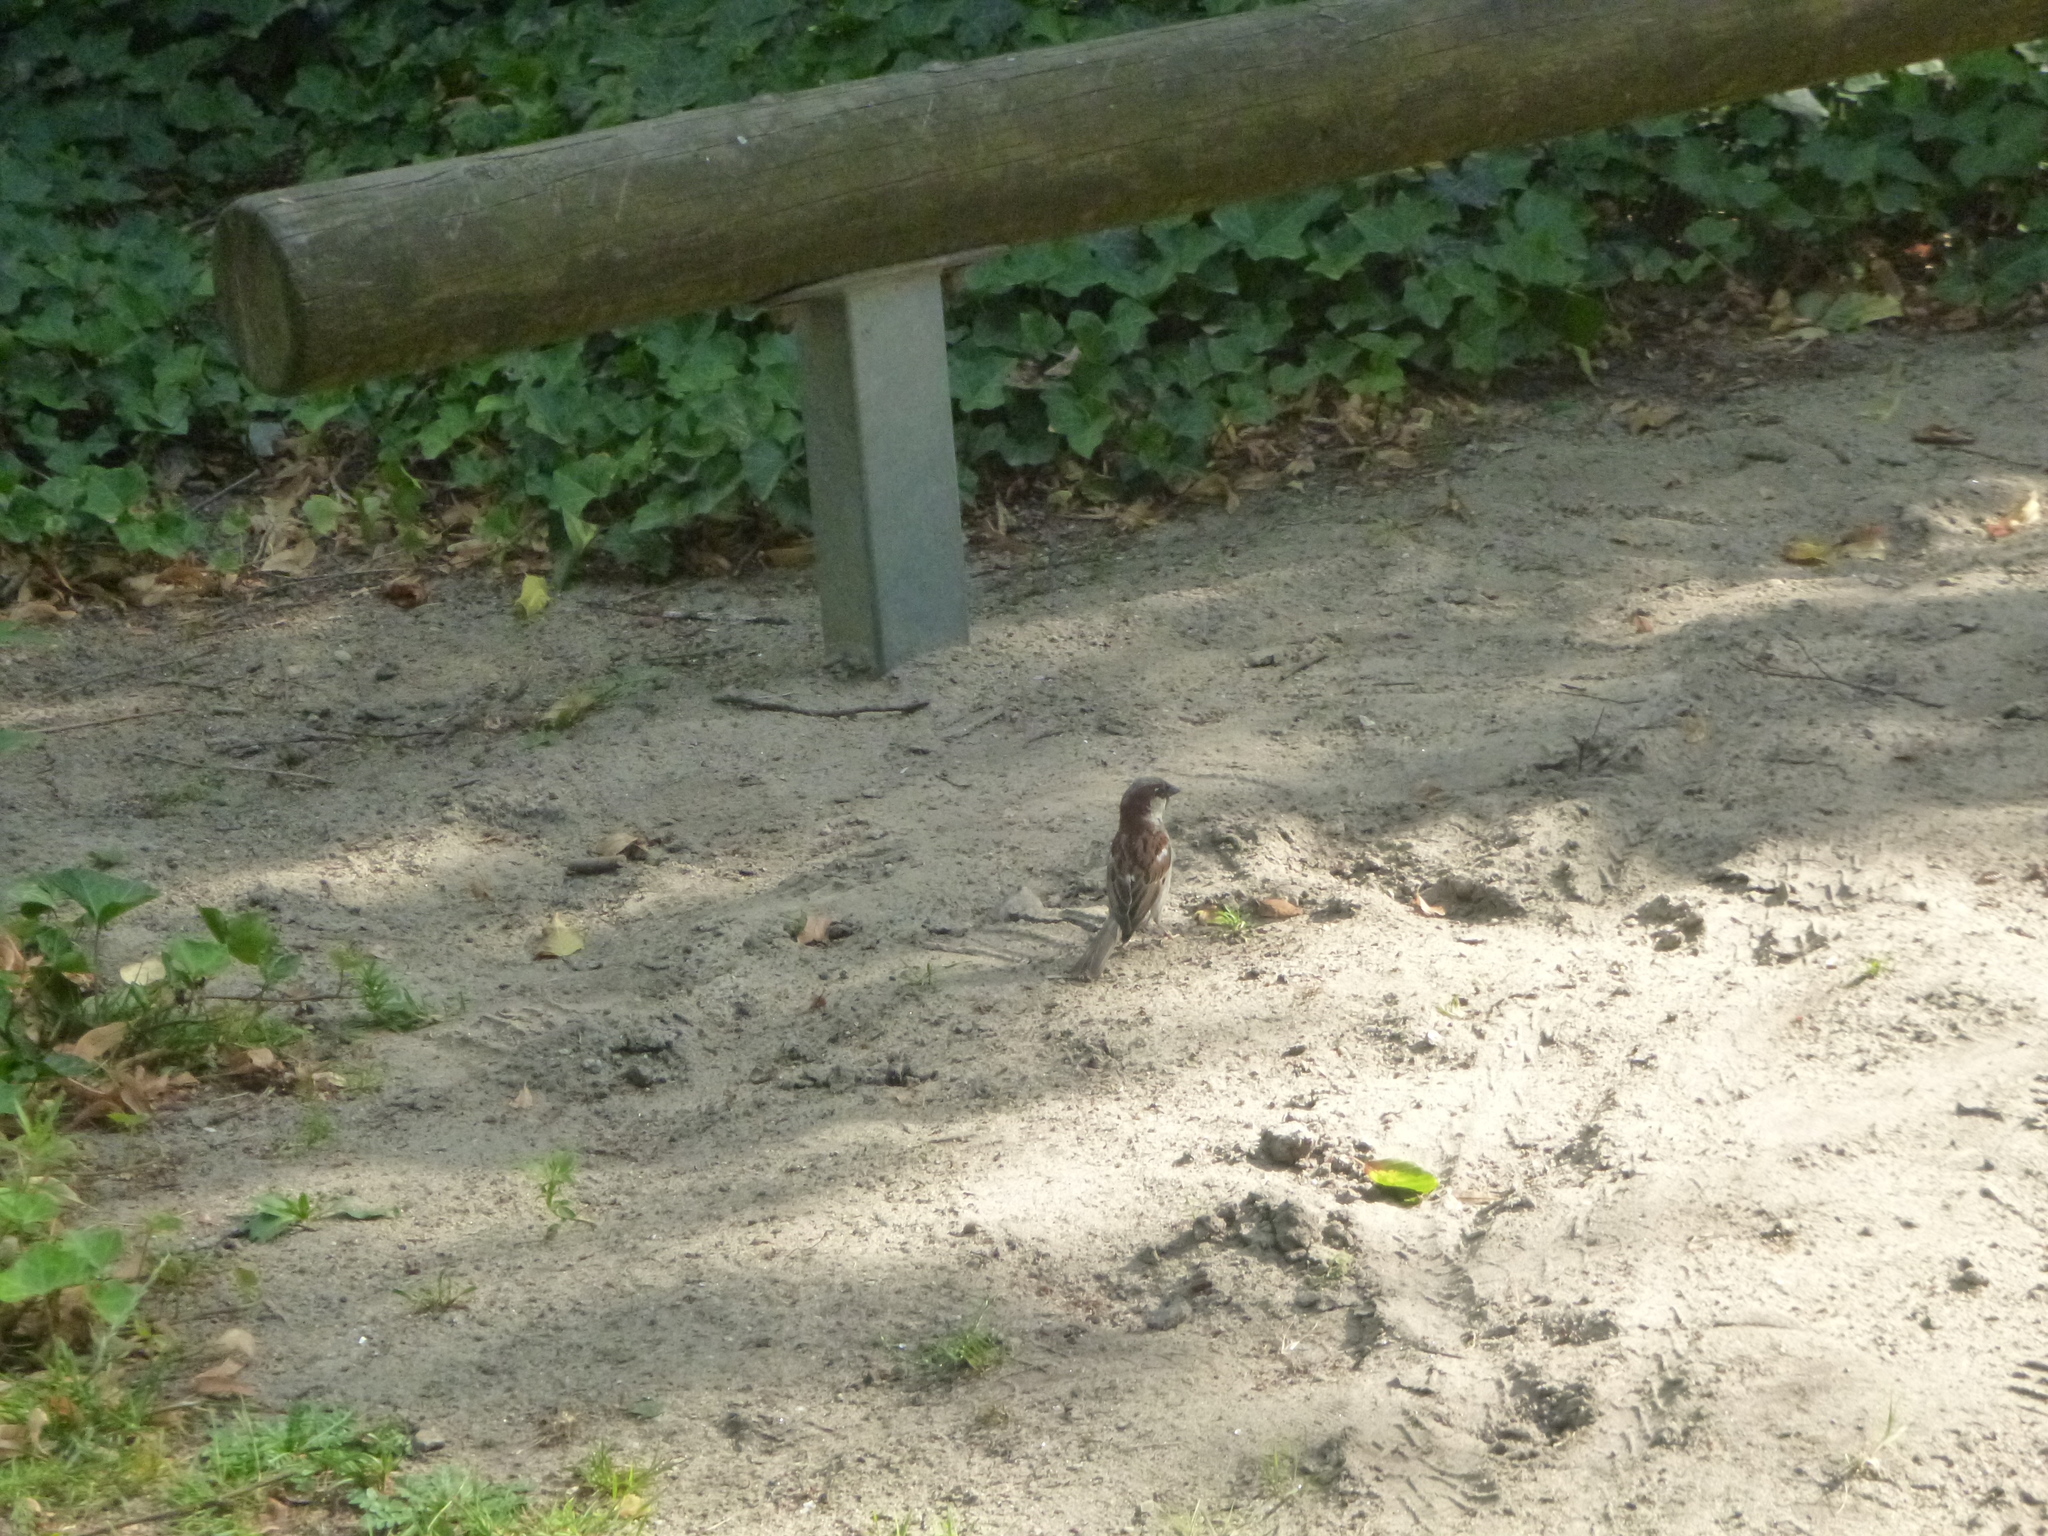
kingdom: Animalia
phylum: Chordata
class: Aves
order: Passeriformes
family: Passeridae
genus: Passer
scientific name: Passer domesticus
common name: House sparrow
